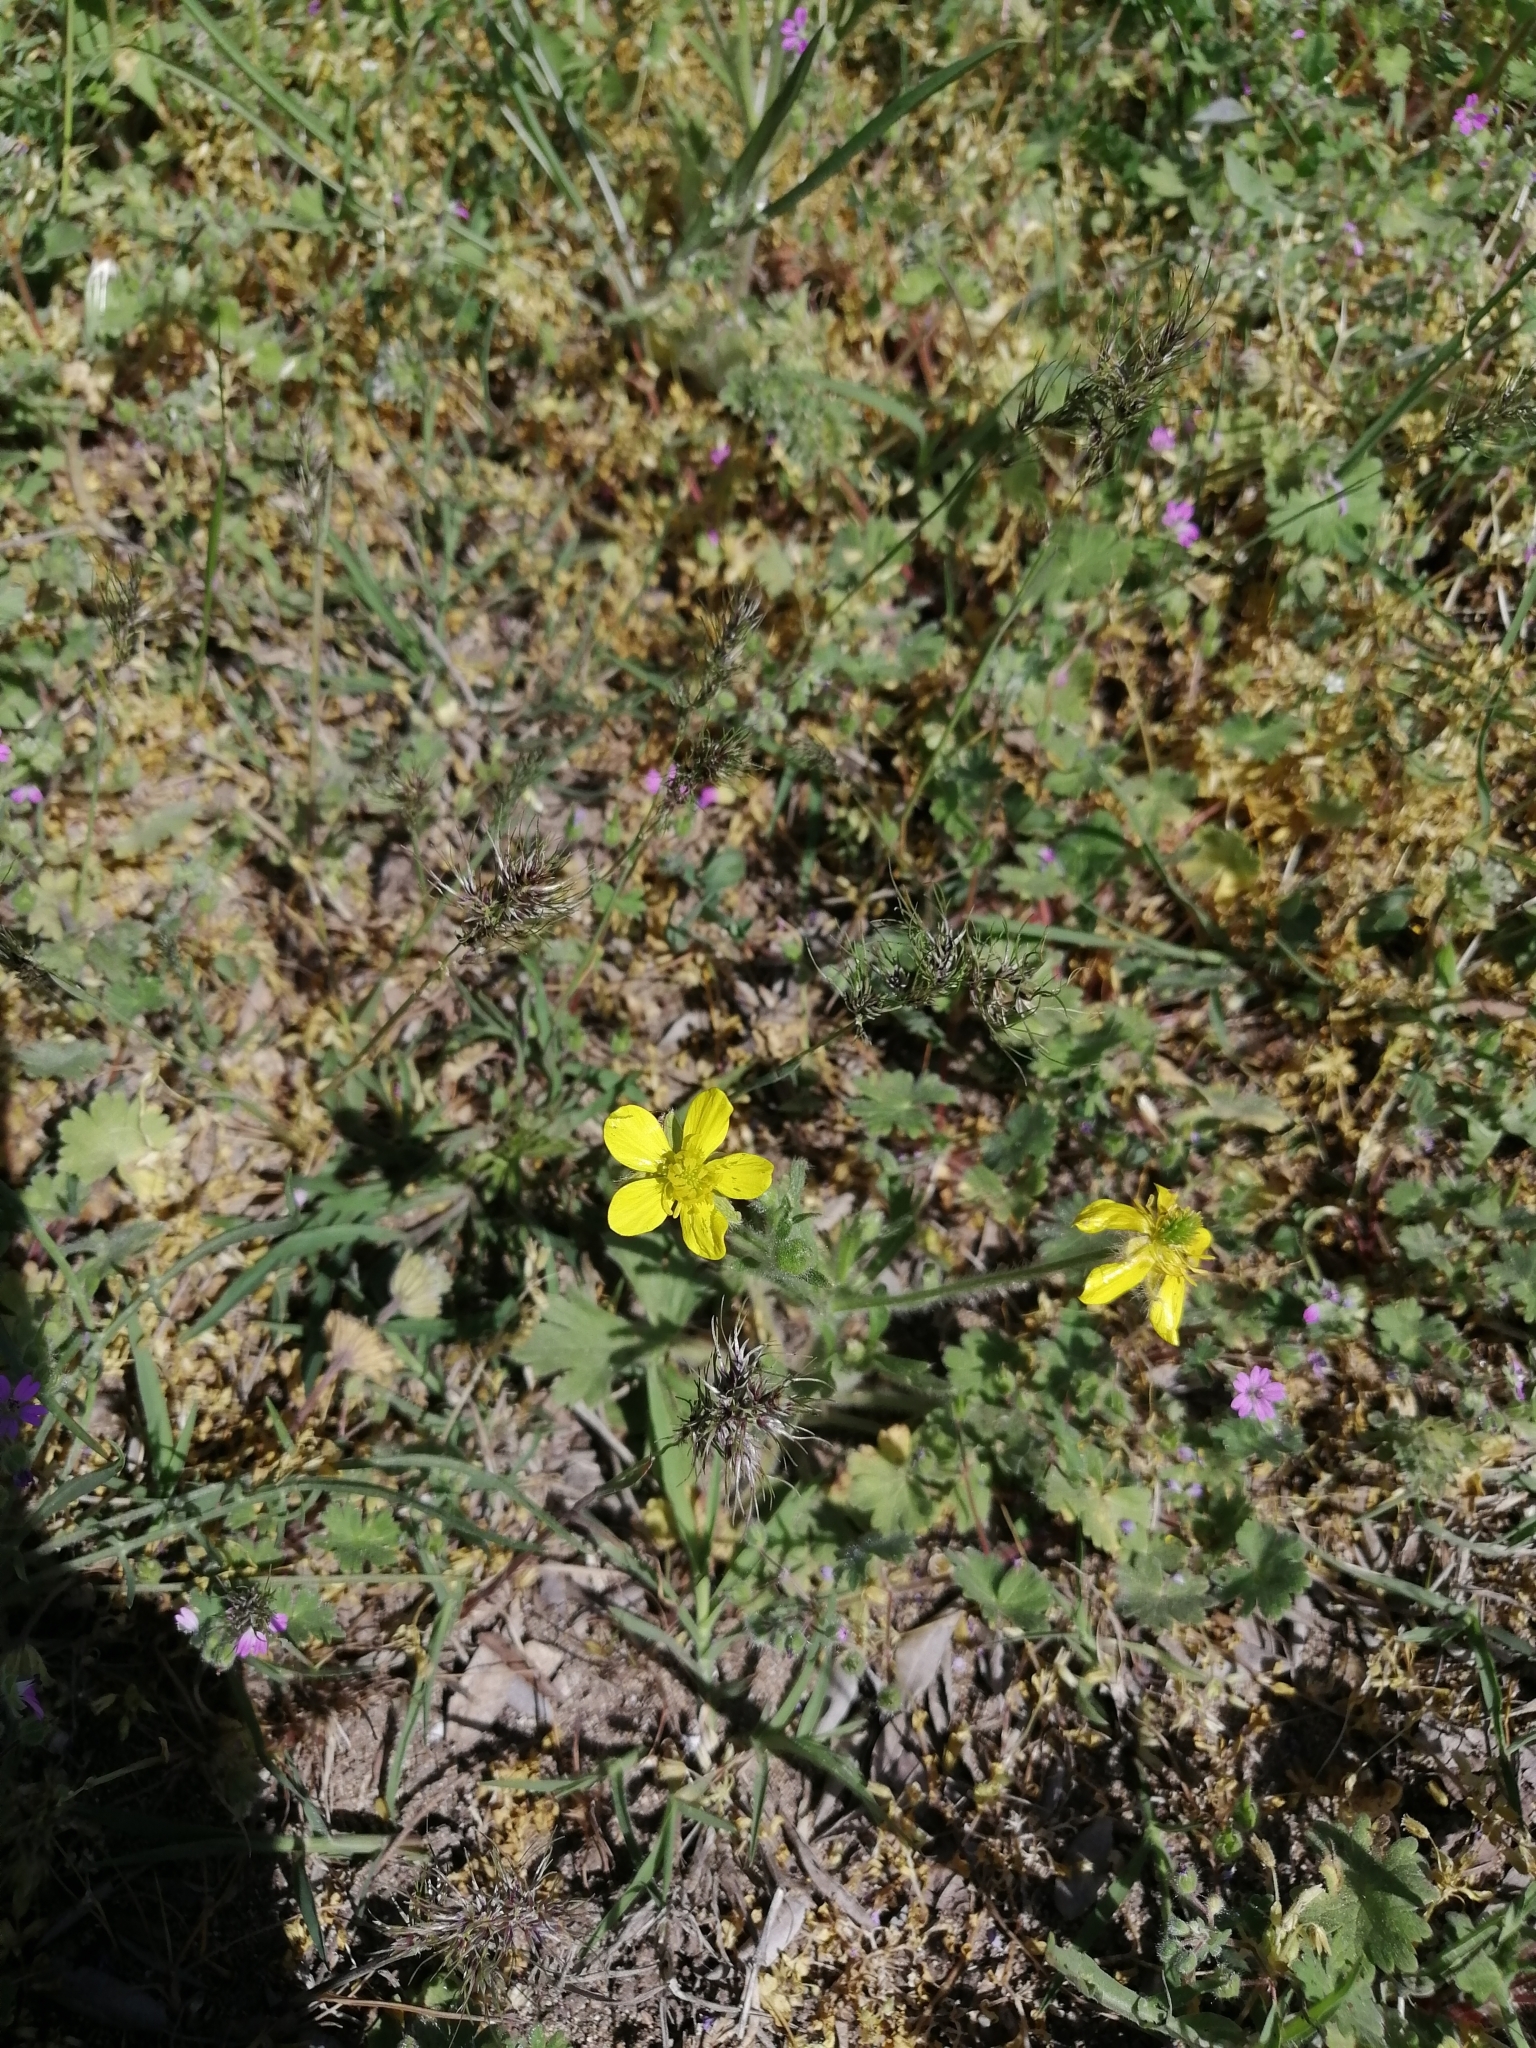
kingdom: Plantae
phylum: Tracheophyta
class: Magnoliopsida
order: Ranunculales
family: Ranunculaceae
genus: Ranunculus
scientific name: Ranunculus oxyspermus
